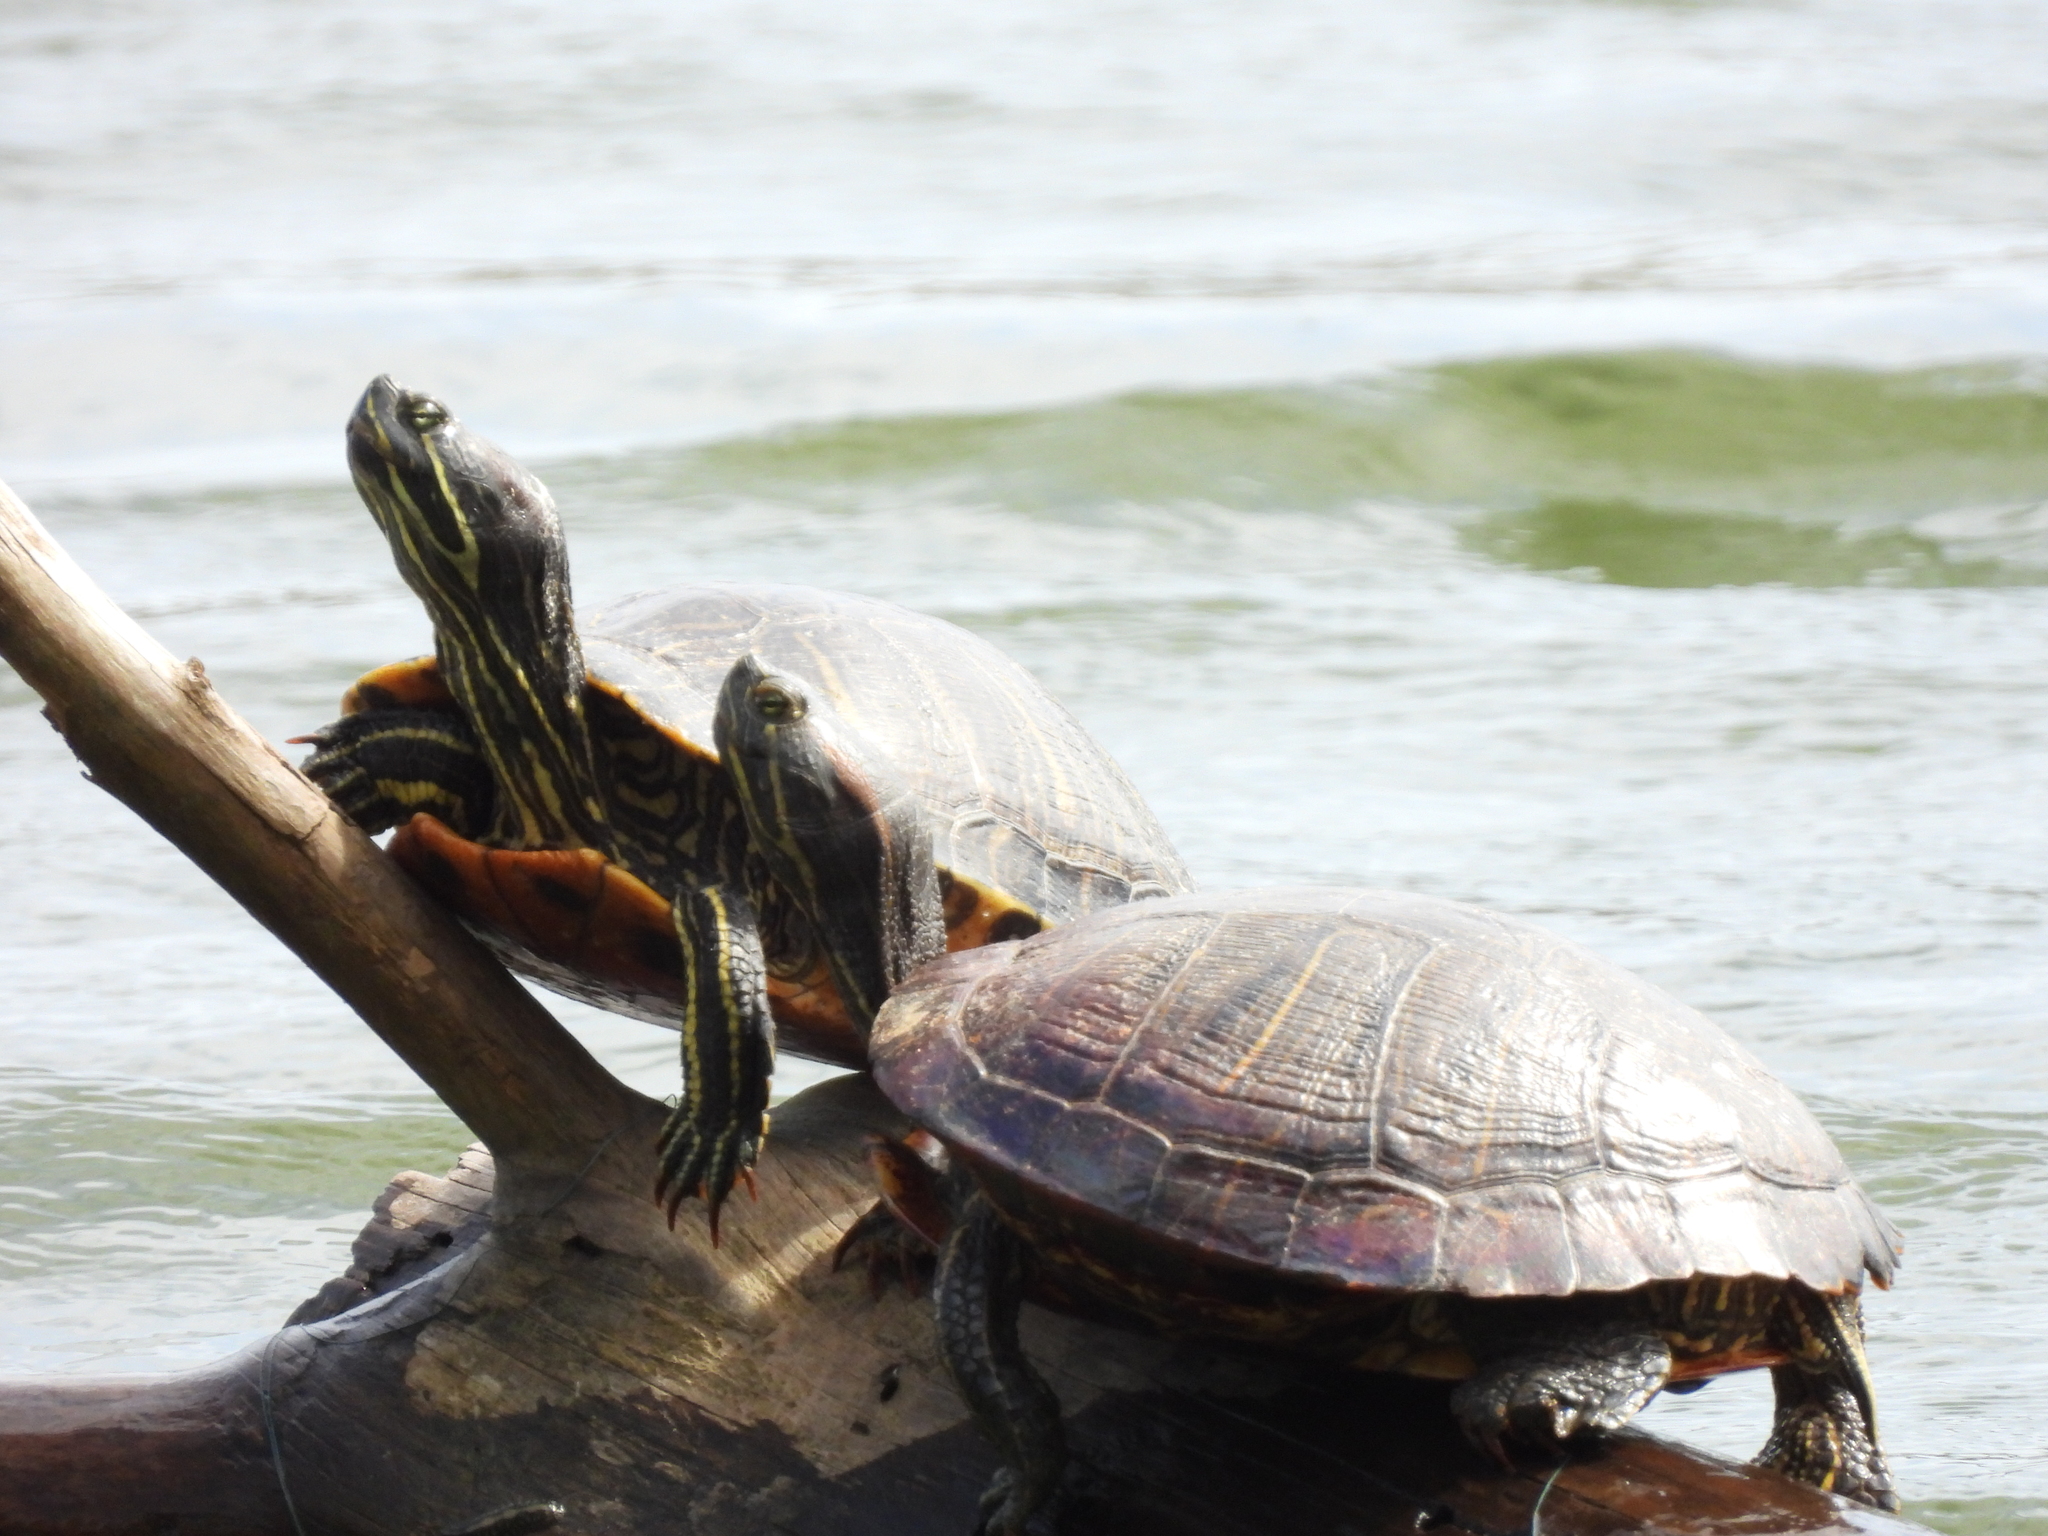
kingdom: Animalia
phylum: Chordata
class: Testudines
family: Emydidae
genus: Trachemys
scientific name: Trachemys scripta
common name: Slider
